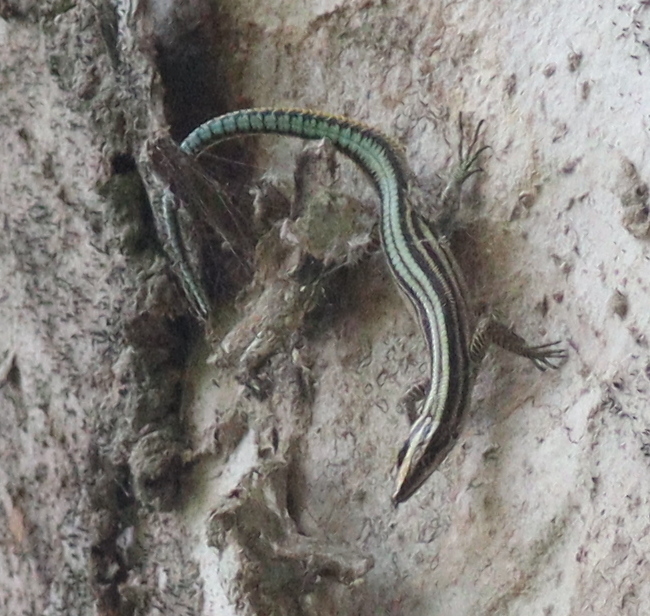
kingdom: Animalia
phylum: Chordata
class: Squamata
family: Lacertidae
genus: Holaspis
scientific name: Holaspis guentheri
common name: Sawtail lizard
